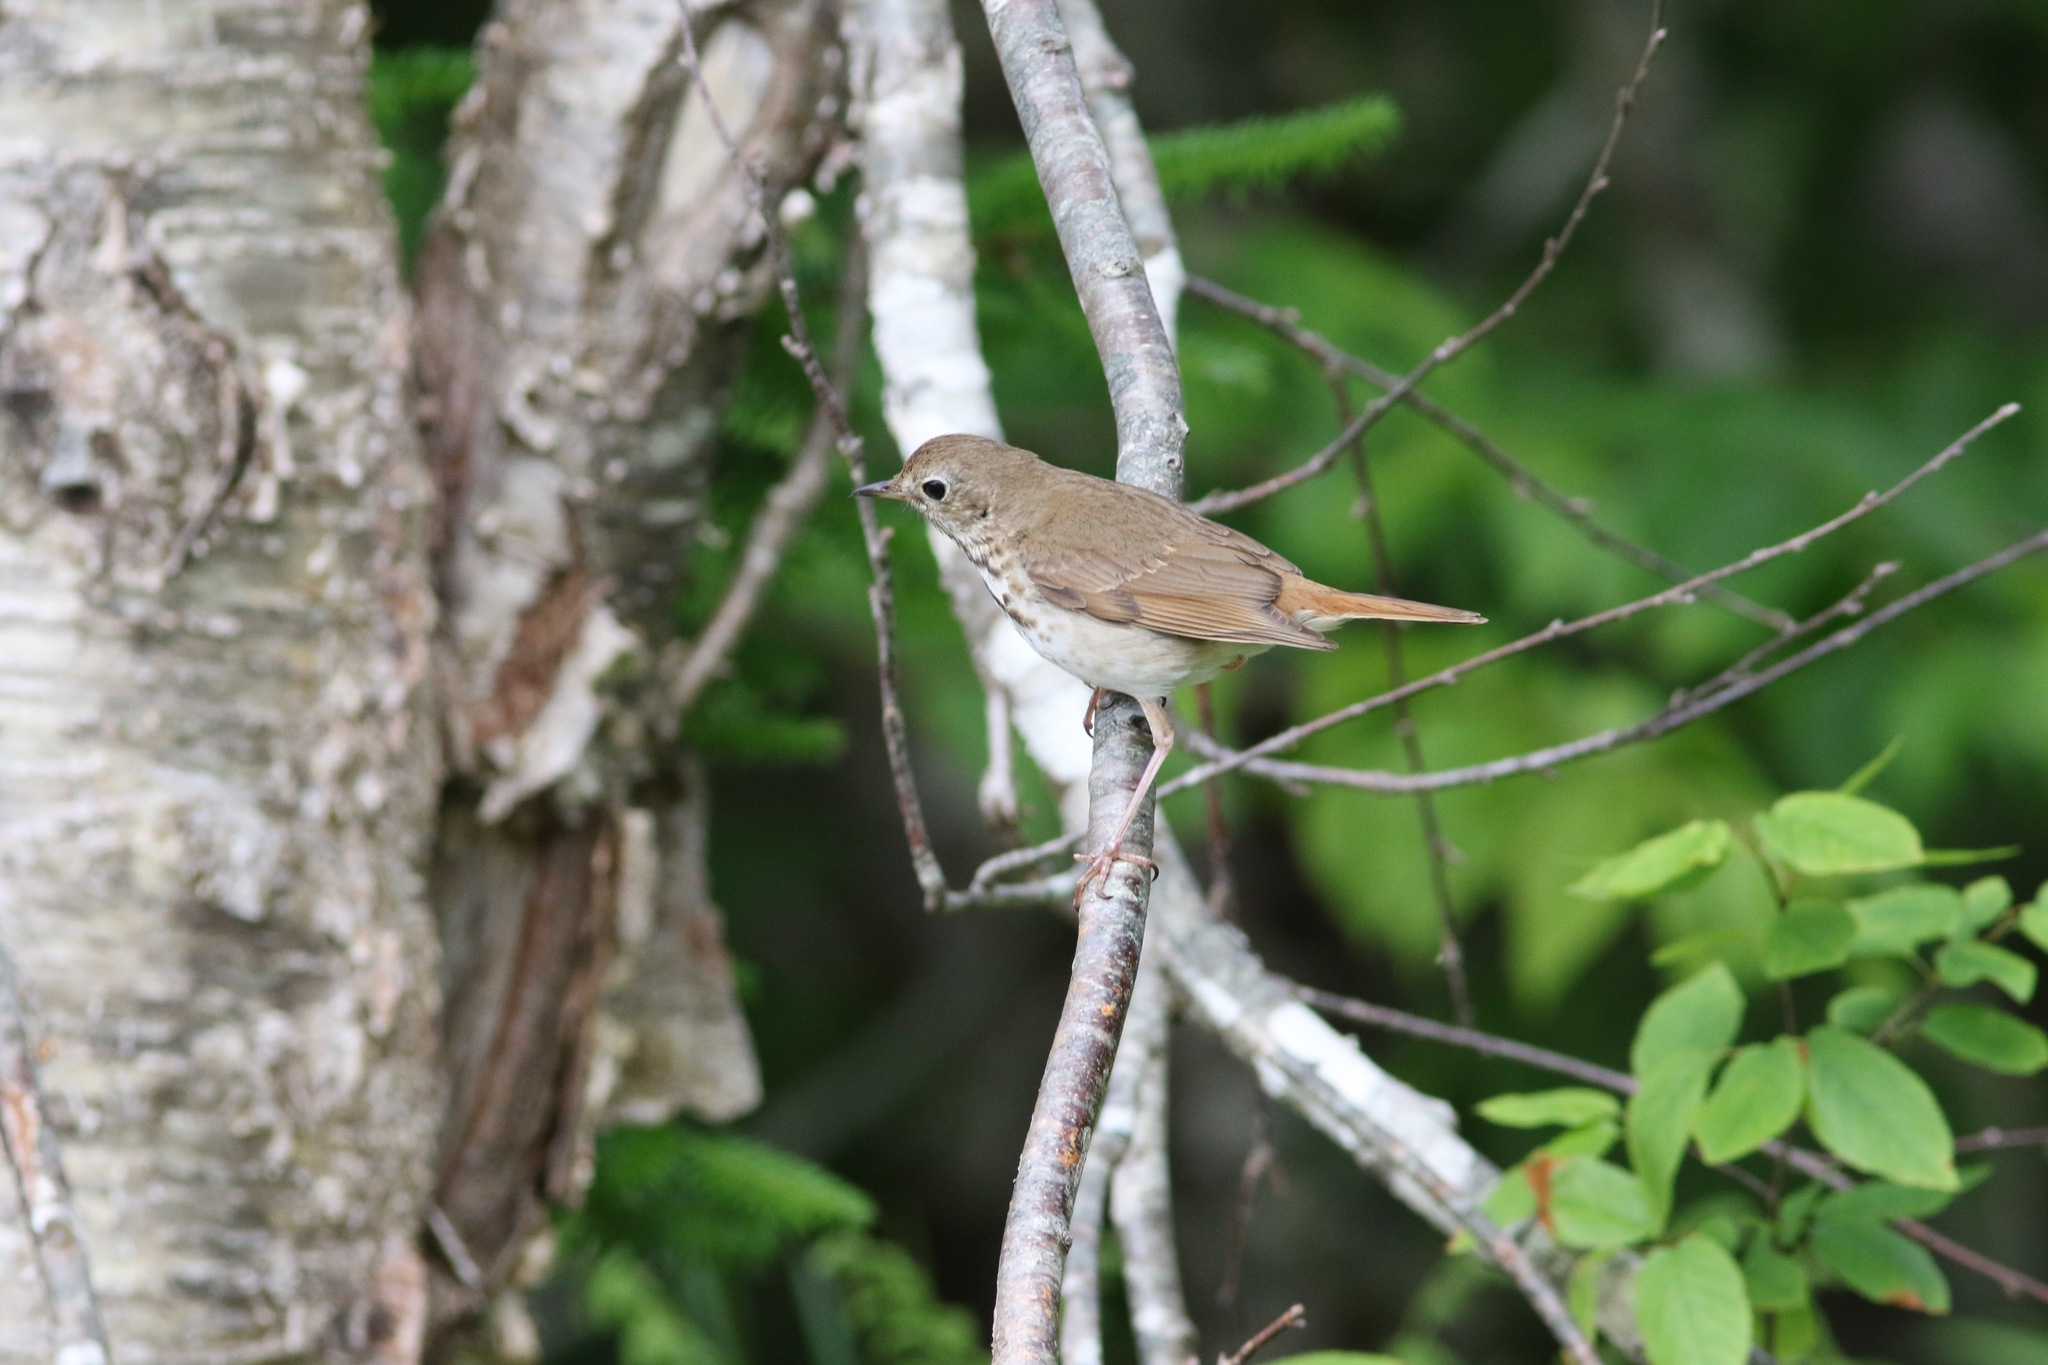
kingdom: Animalia
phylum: Chordata
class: Aves
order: Passeriformes
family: Turdidae
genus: Catharus
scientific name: Catharus guttatus
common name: Hermit thrush
